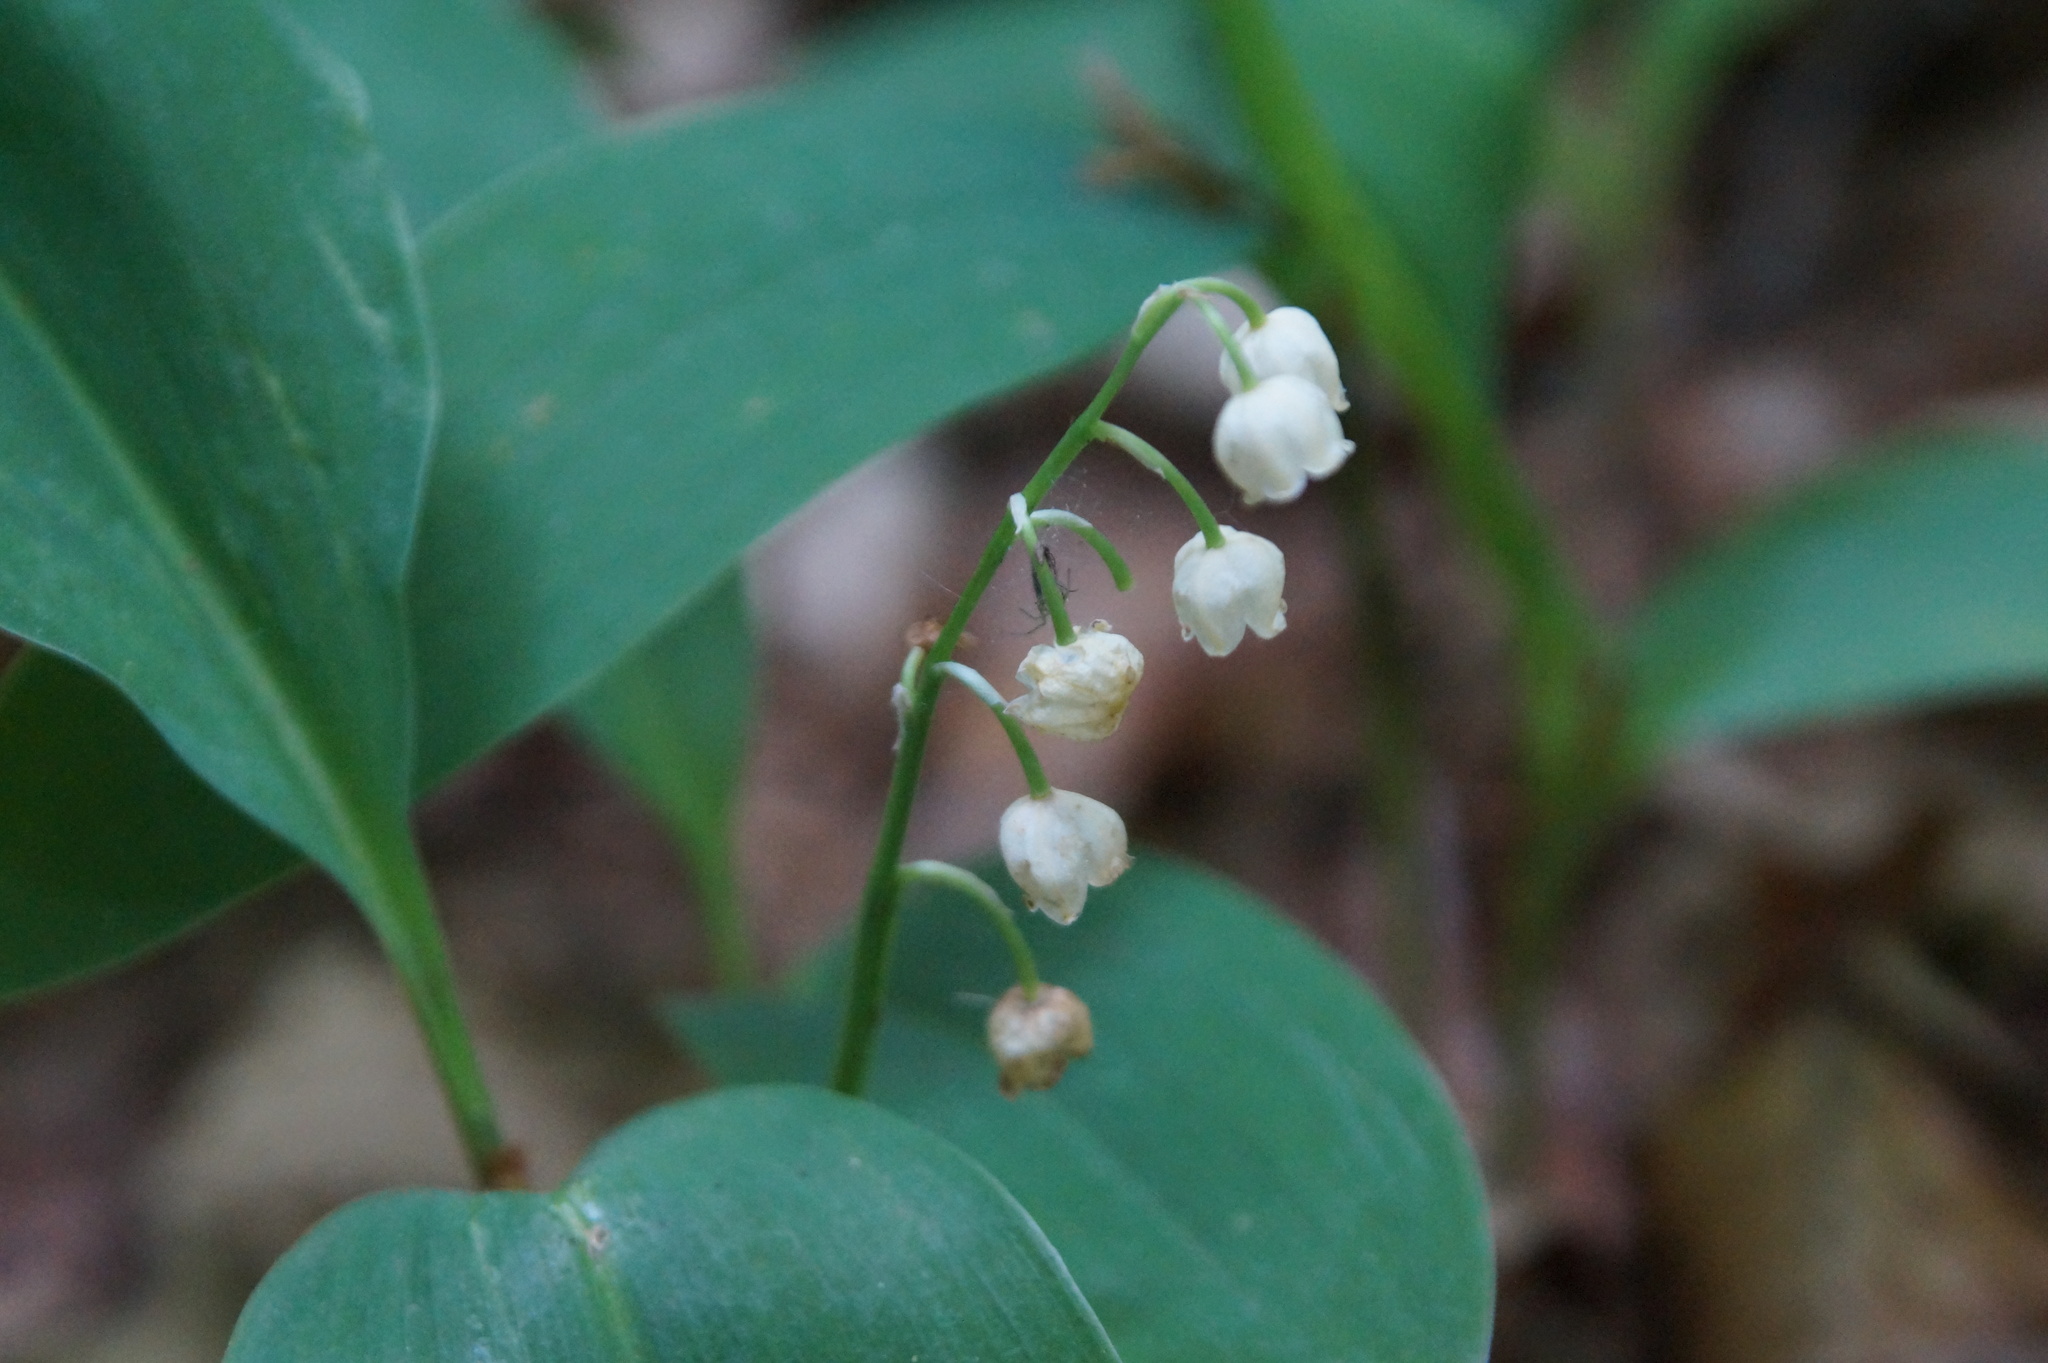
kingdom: Plantae
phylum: Tracheophyta
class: Liliopsida
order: Asparagales
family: Asparagaceae
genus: Convallaria
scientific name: Convallaria majalis
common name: Lily-of-the-valley
